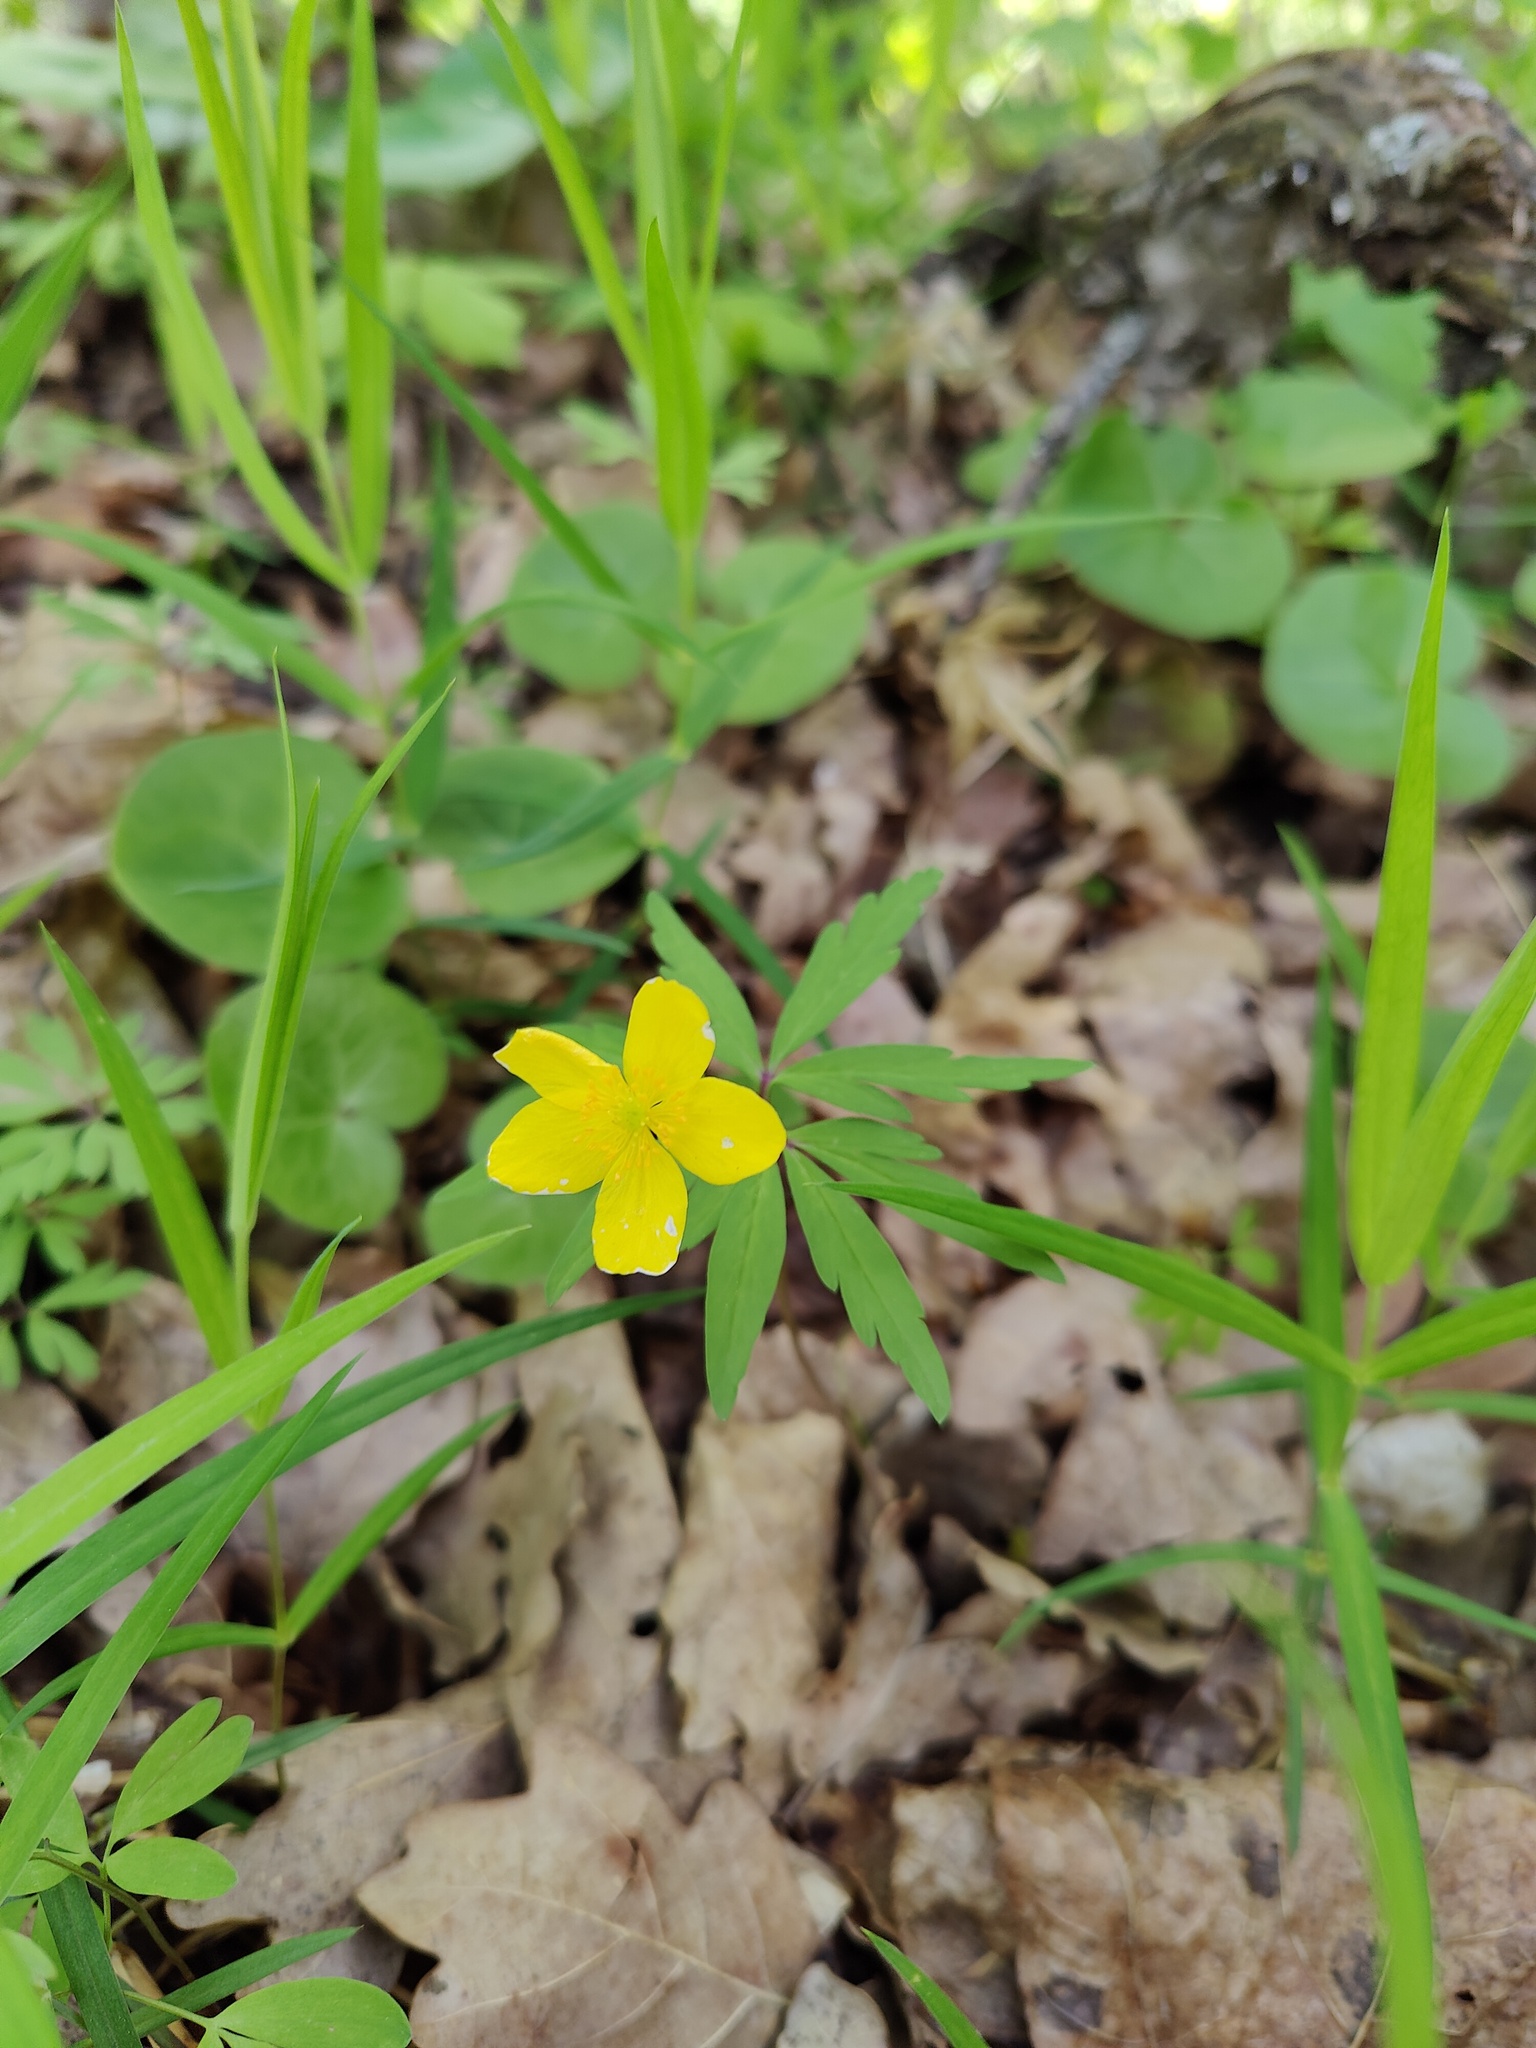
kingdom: Plantae
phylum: Tracheophyta
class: Magnoliopsida
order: Ranunculales
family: Ranunculaceae
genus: Anemone
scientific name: Anemone ranunculoides
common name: Yellow anemone
